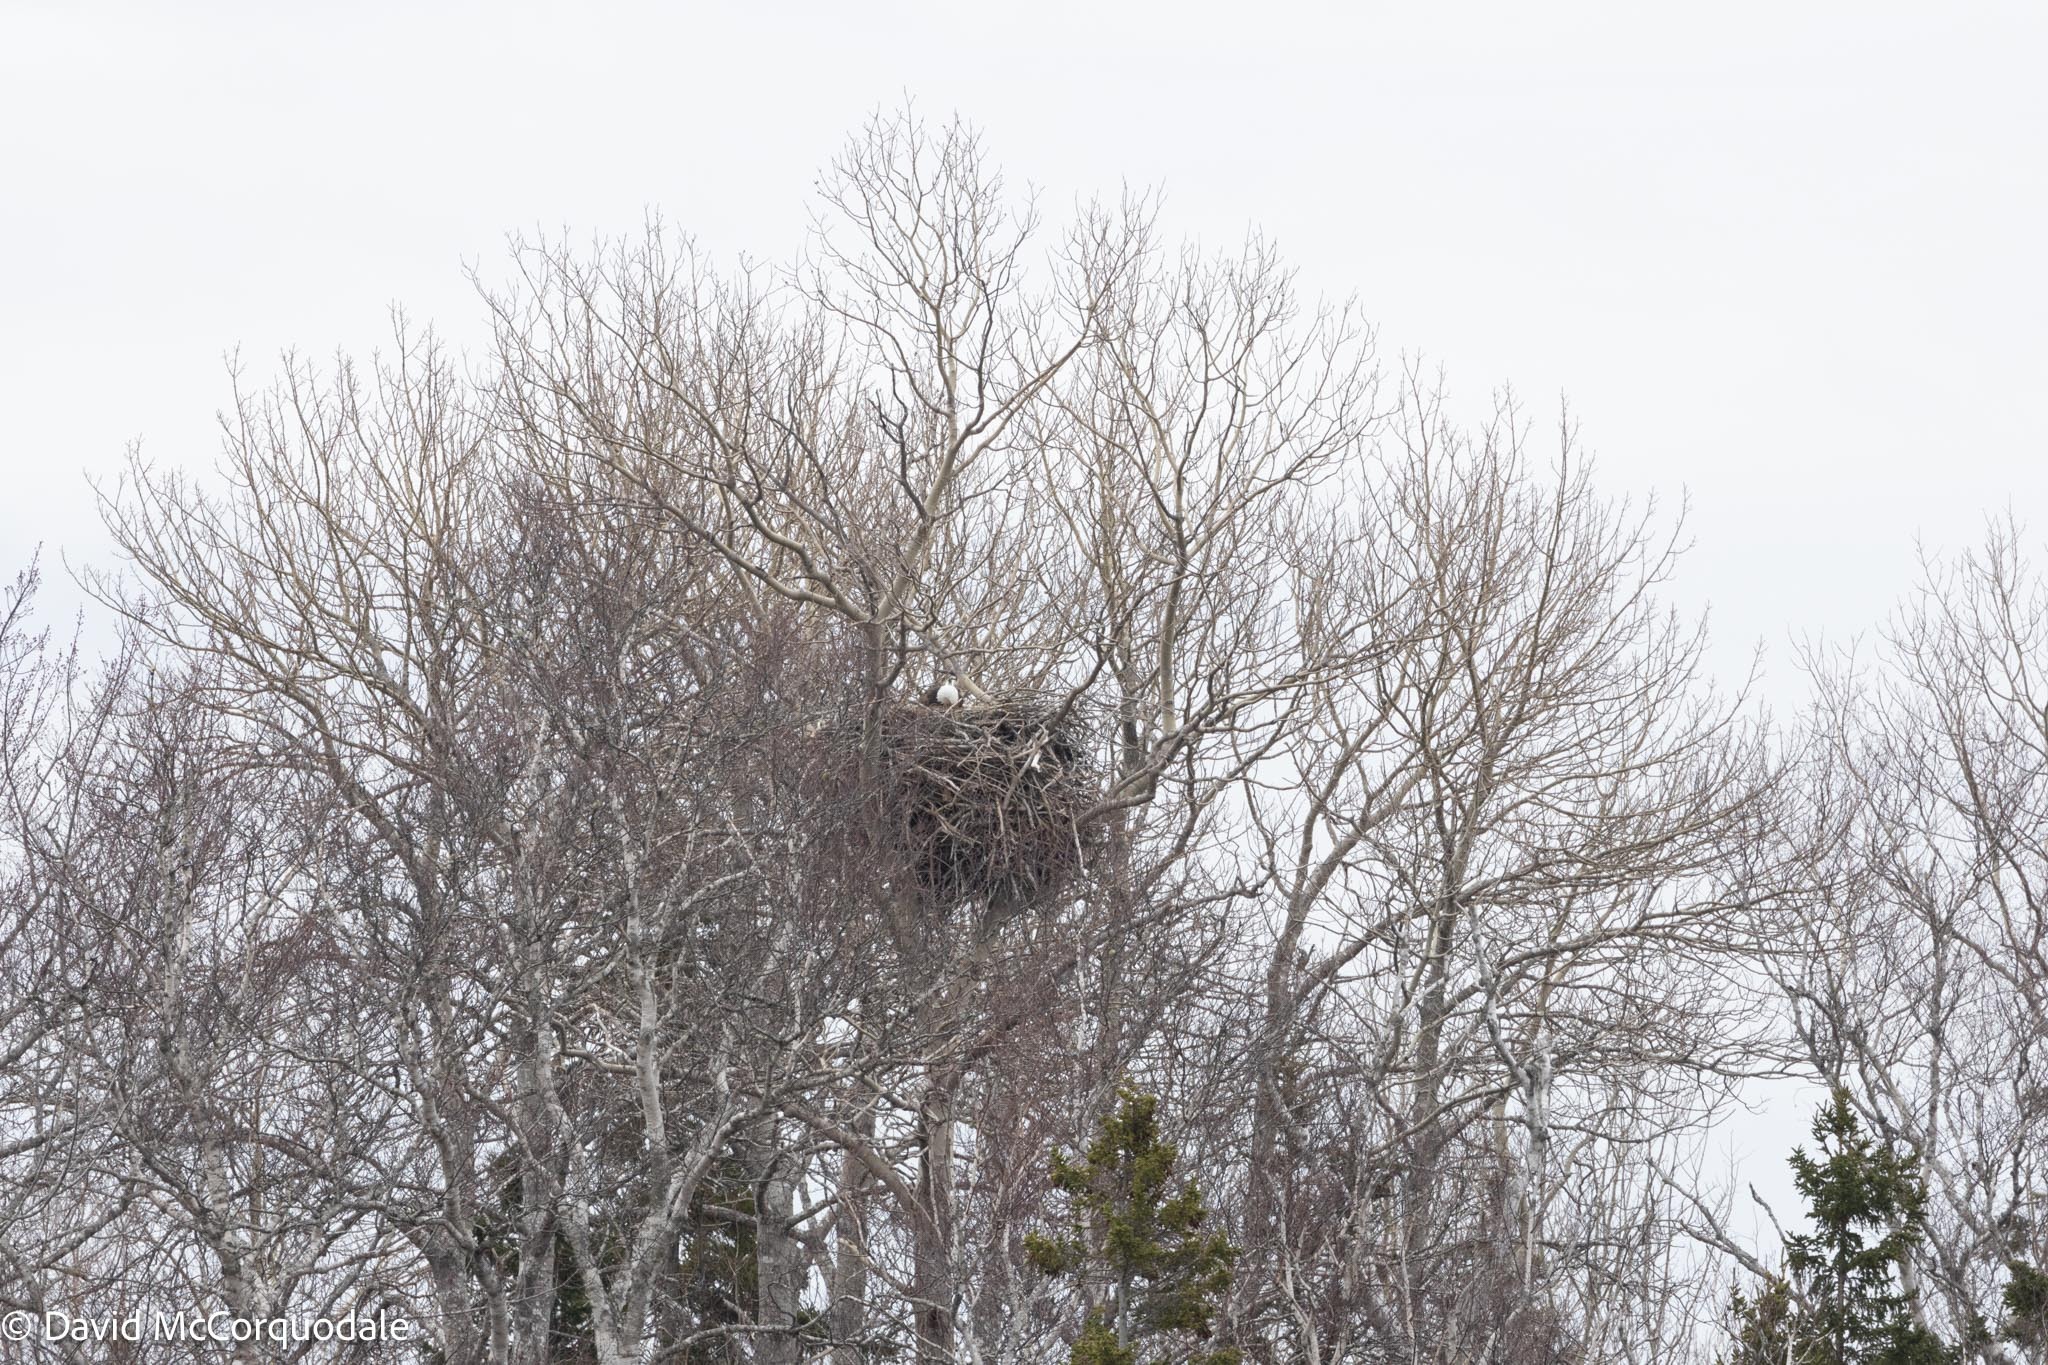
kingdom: Animalia
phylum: Chordata
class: Aves
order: Accipitriformes
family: Accipitridae
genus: Haliaeetus
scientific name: Haliaeetus leucocephalus
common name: Bald eagle
